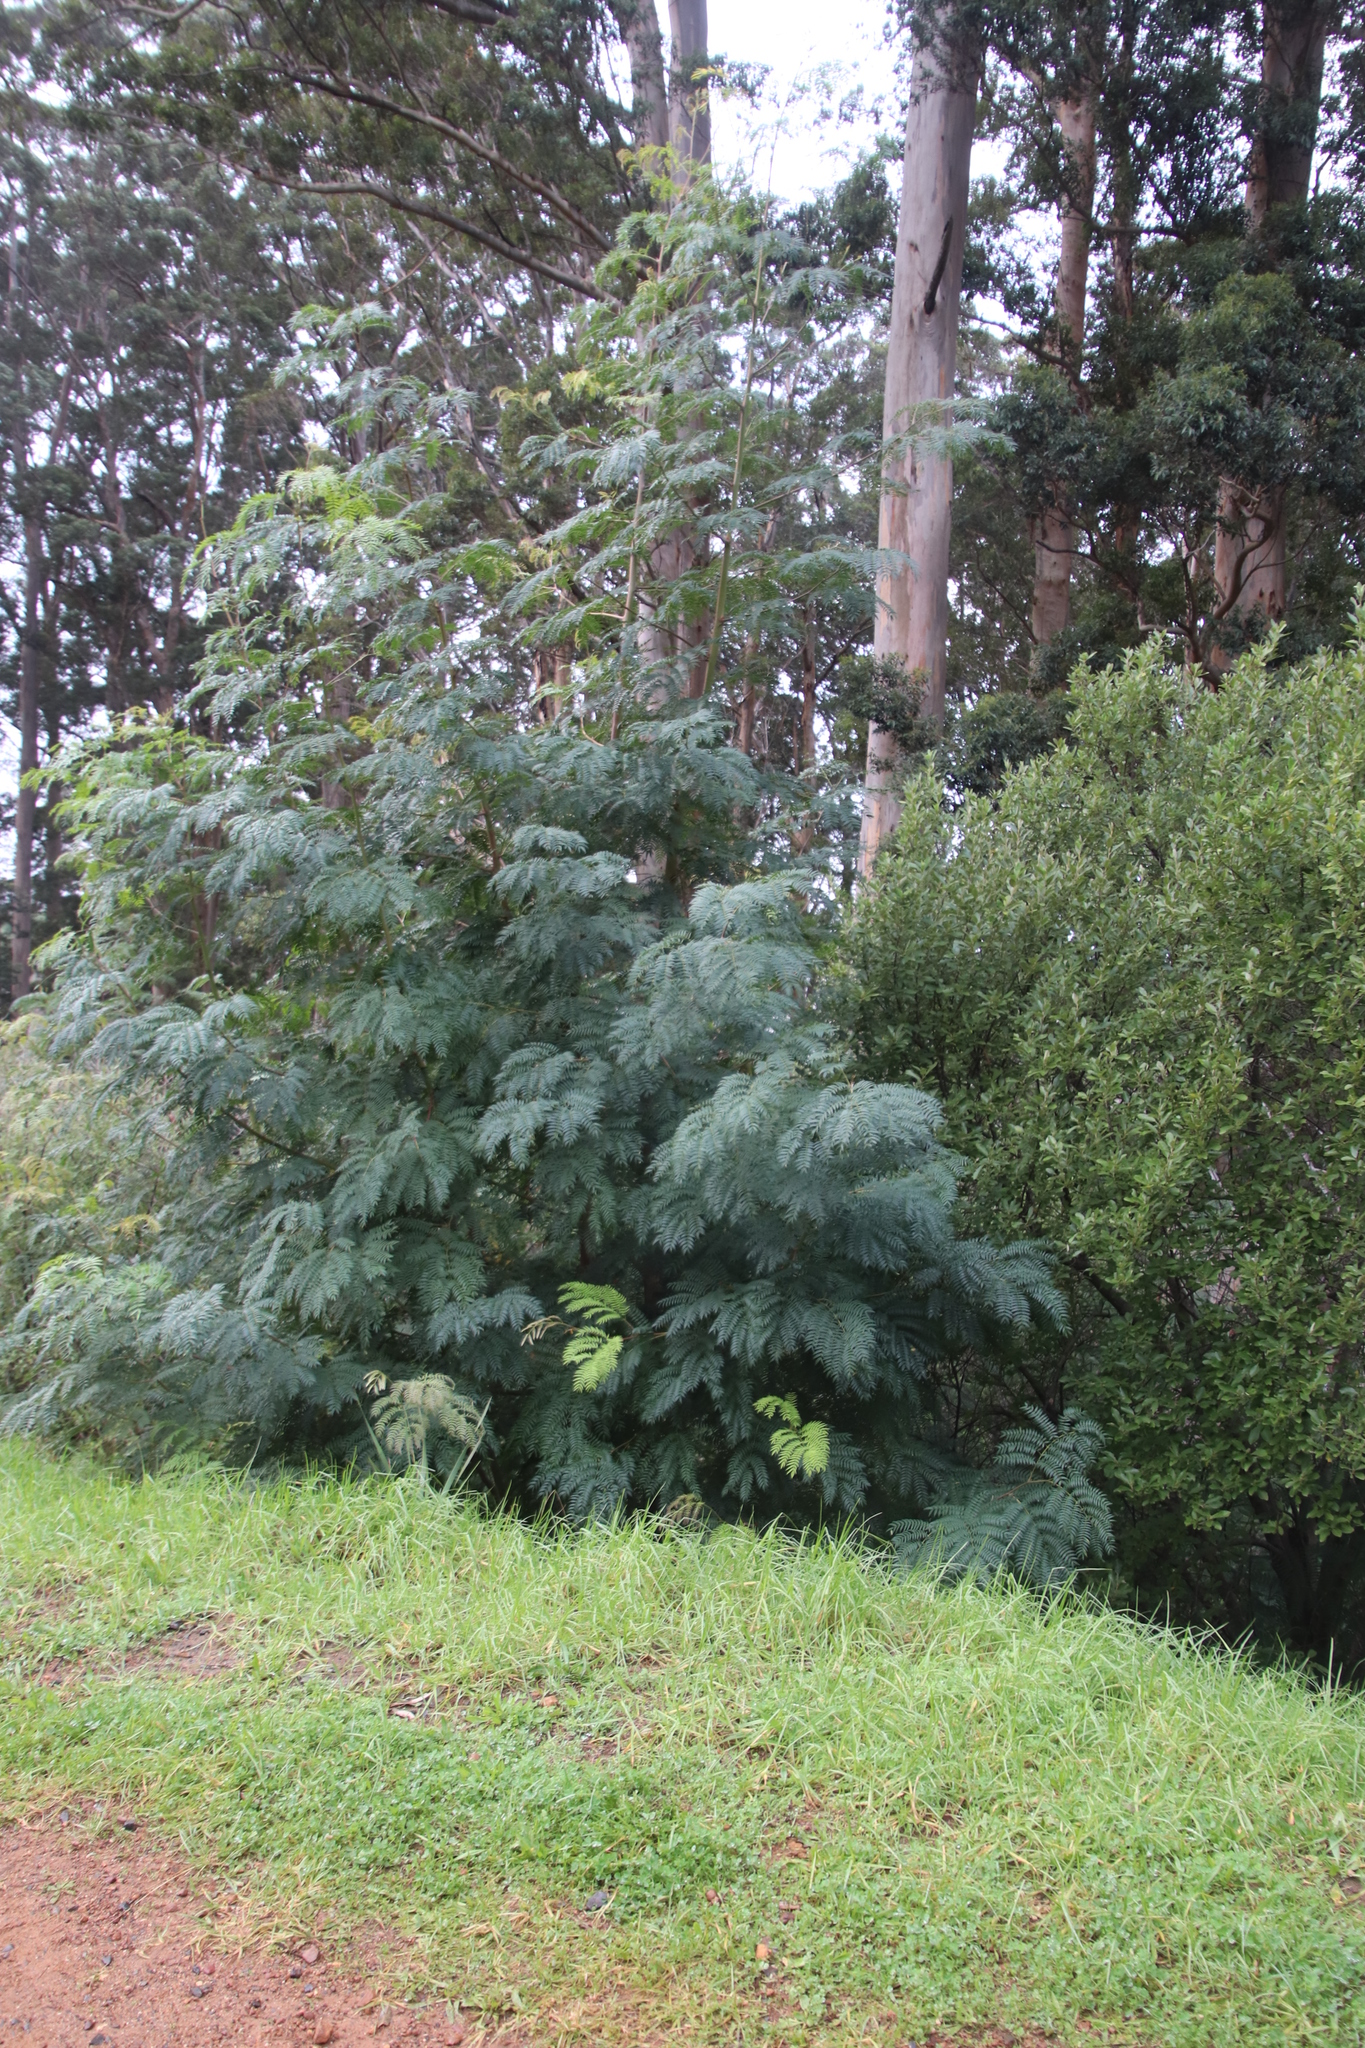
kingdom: Plantae
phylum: Tracheophyta
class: Magnoliopsida
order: Fabales
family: Fabaceae
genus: Acacia
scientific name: Acacia elata
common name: Cedar wattle
